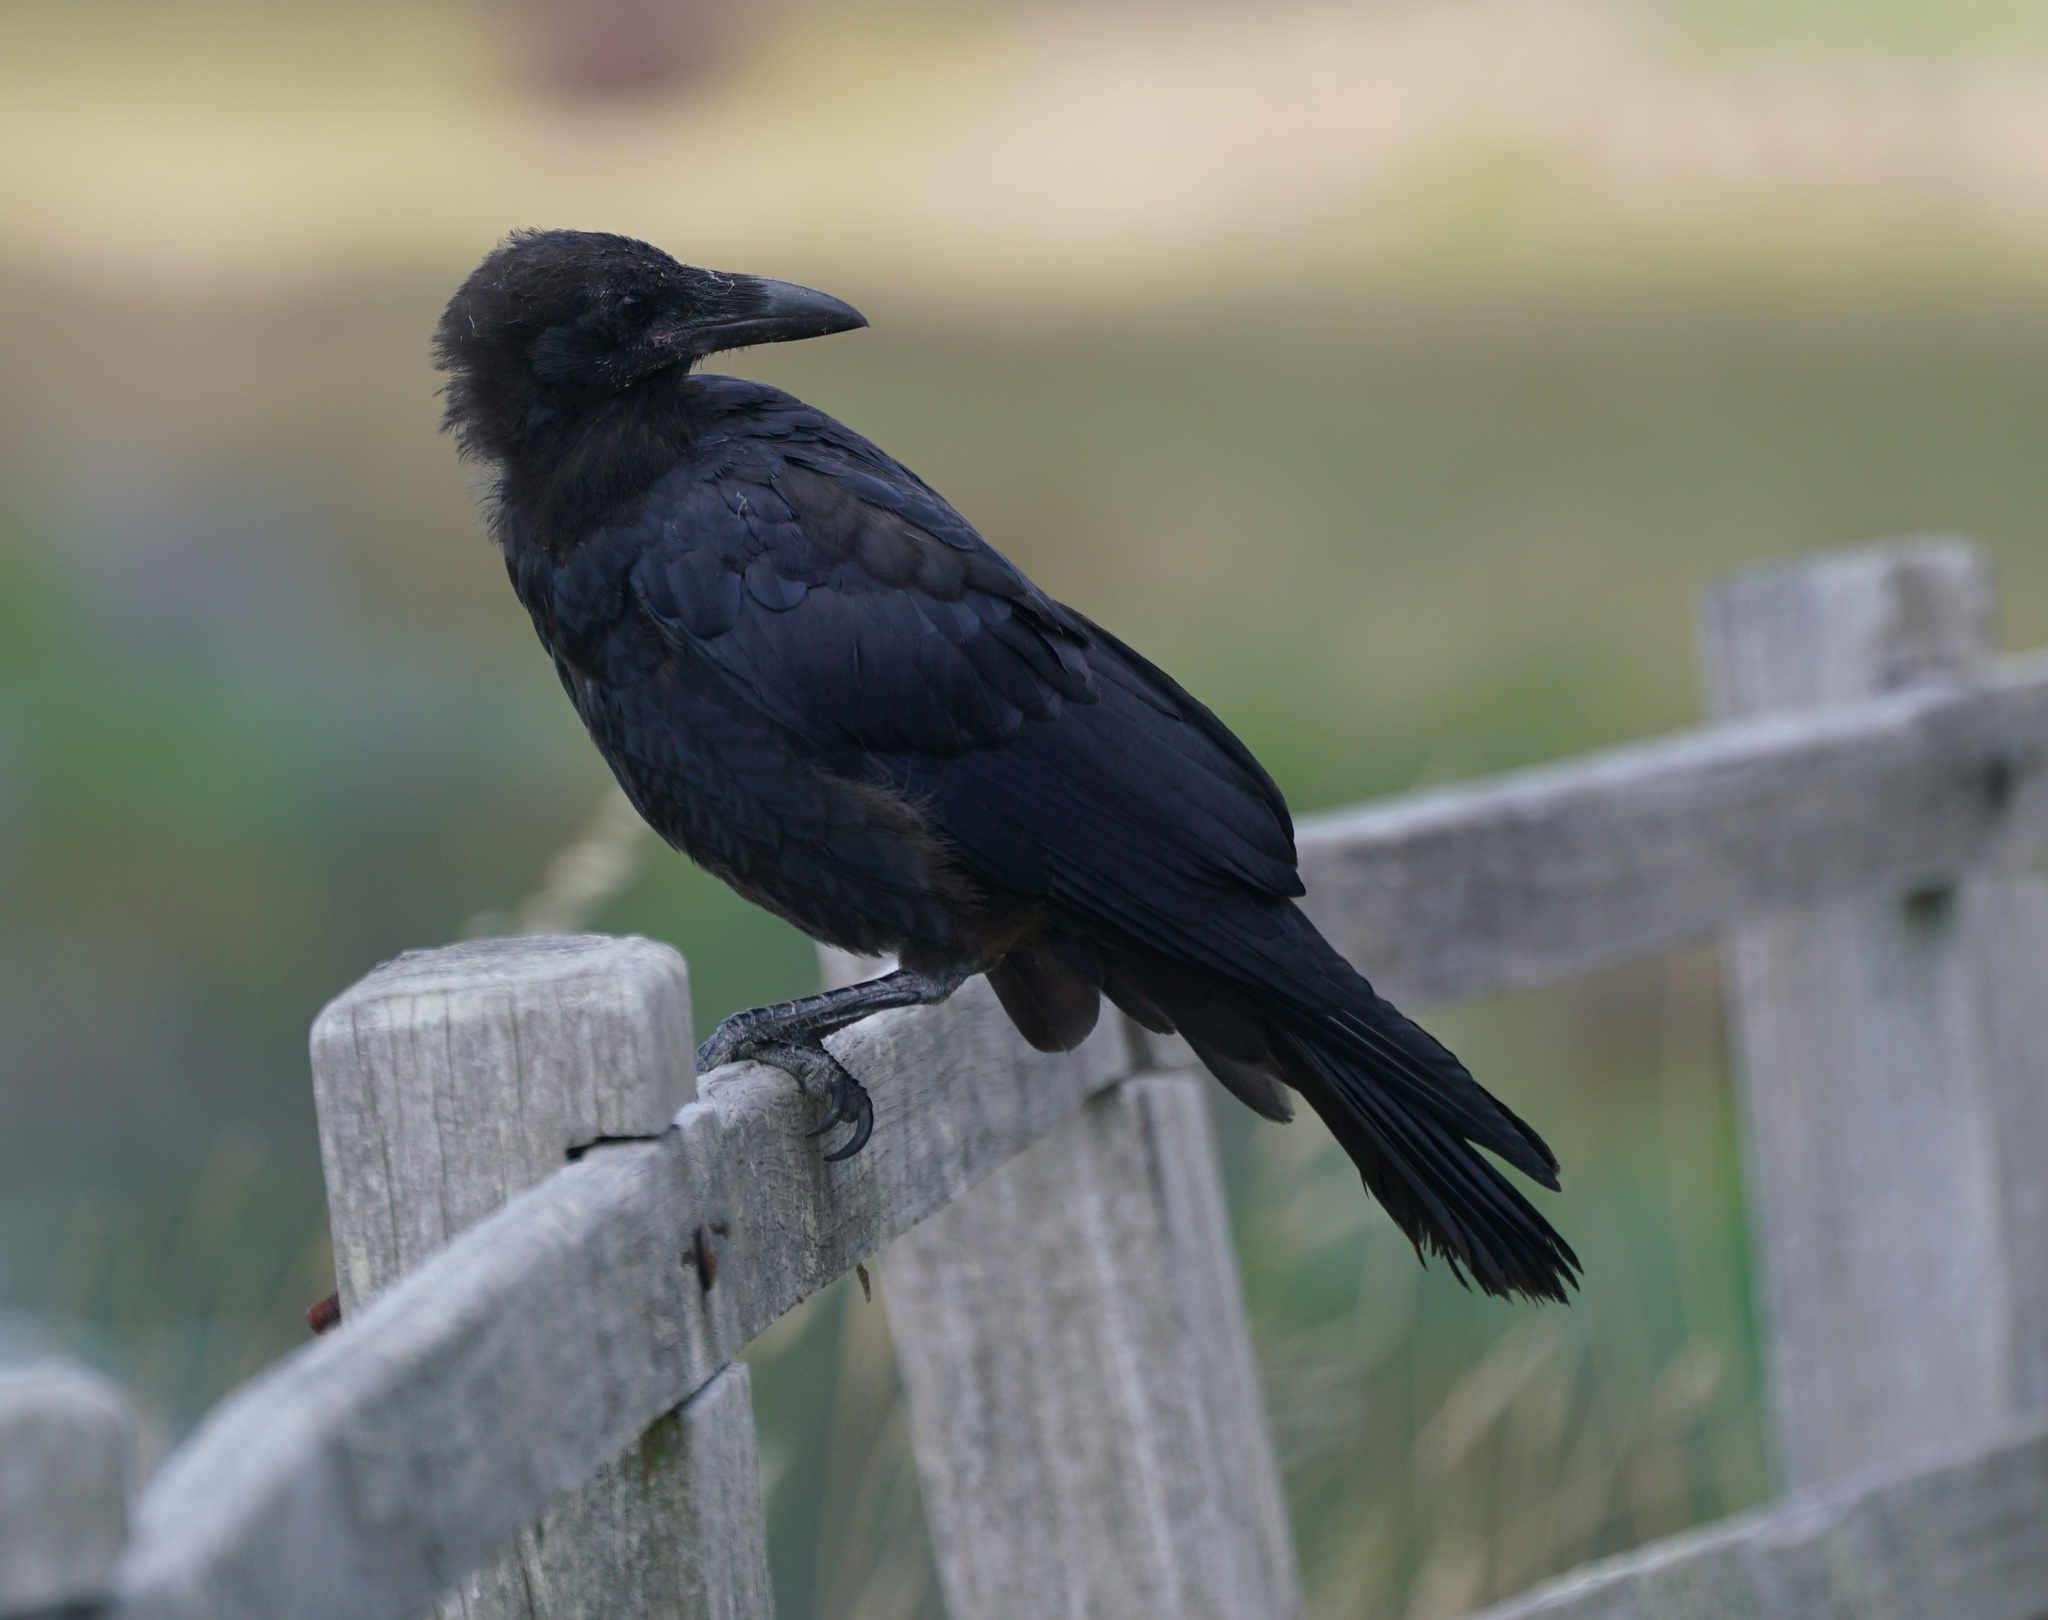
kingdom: Animalia
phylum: Chordata
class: Aves
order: Passeriformes
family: Corvidae
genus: Corvus
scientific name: Corvus coronoides
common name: Australian raven
